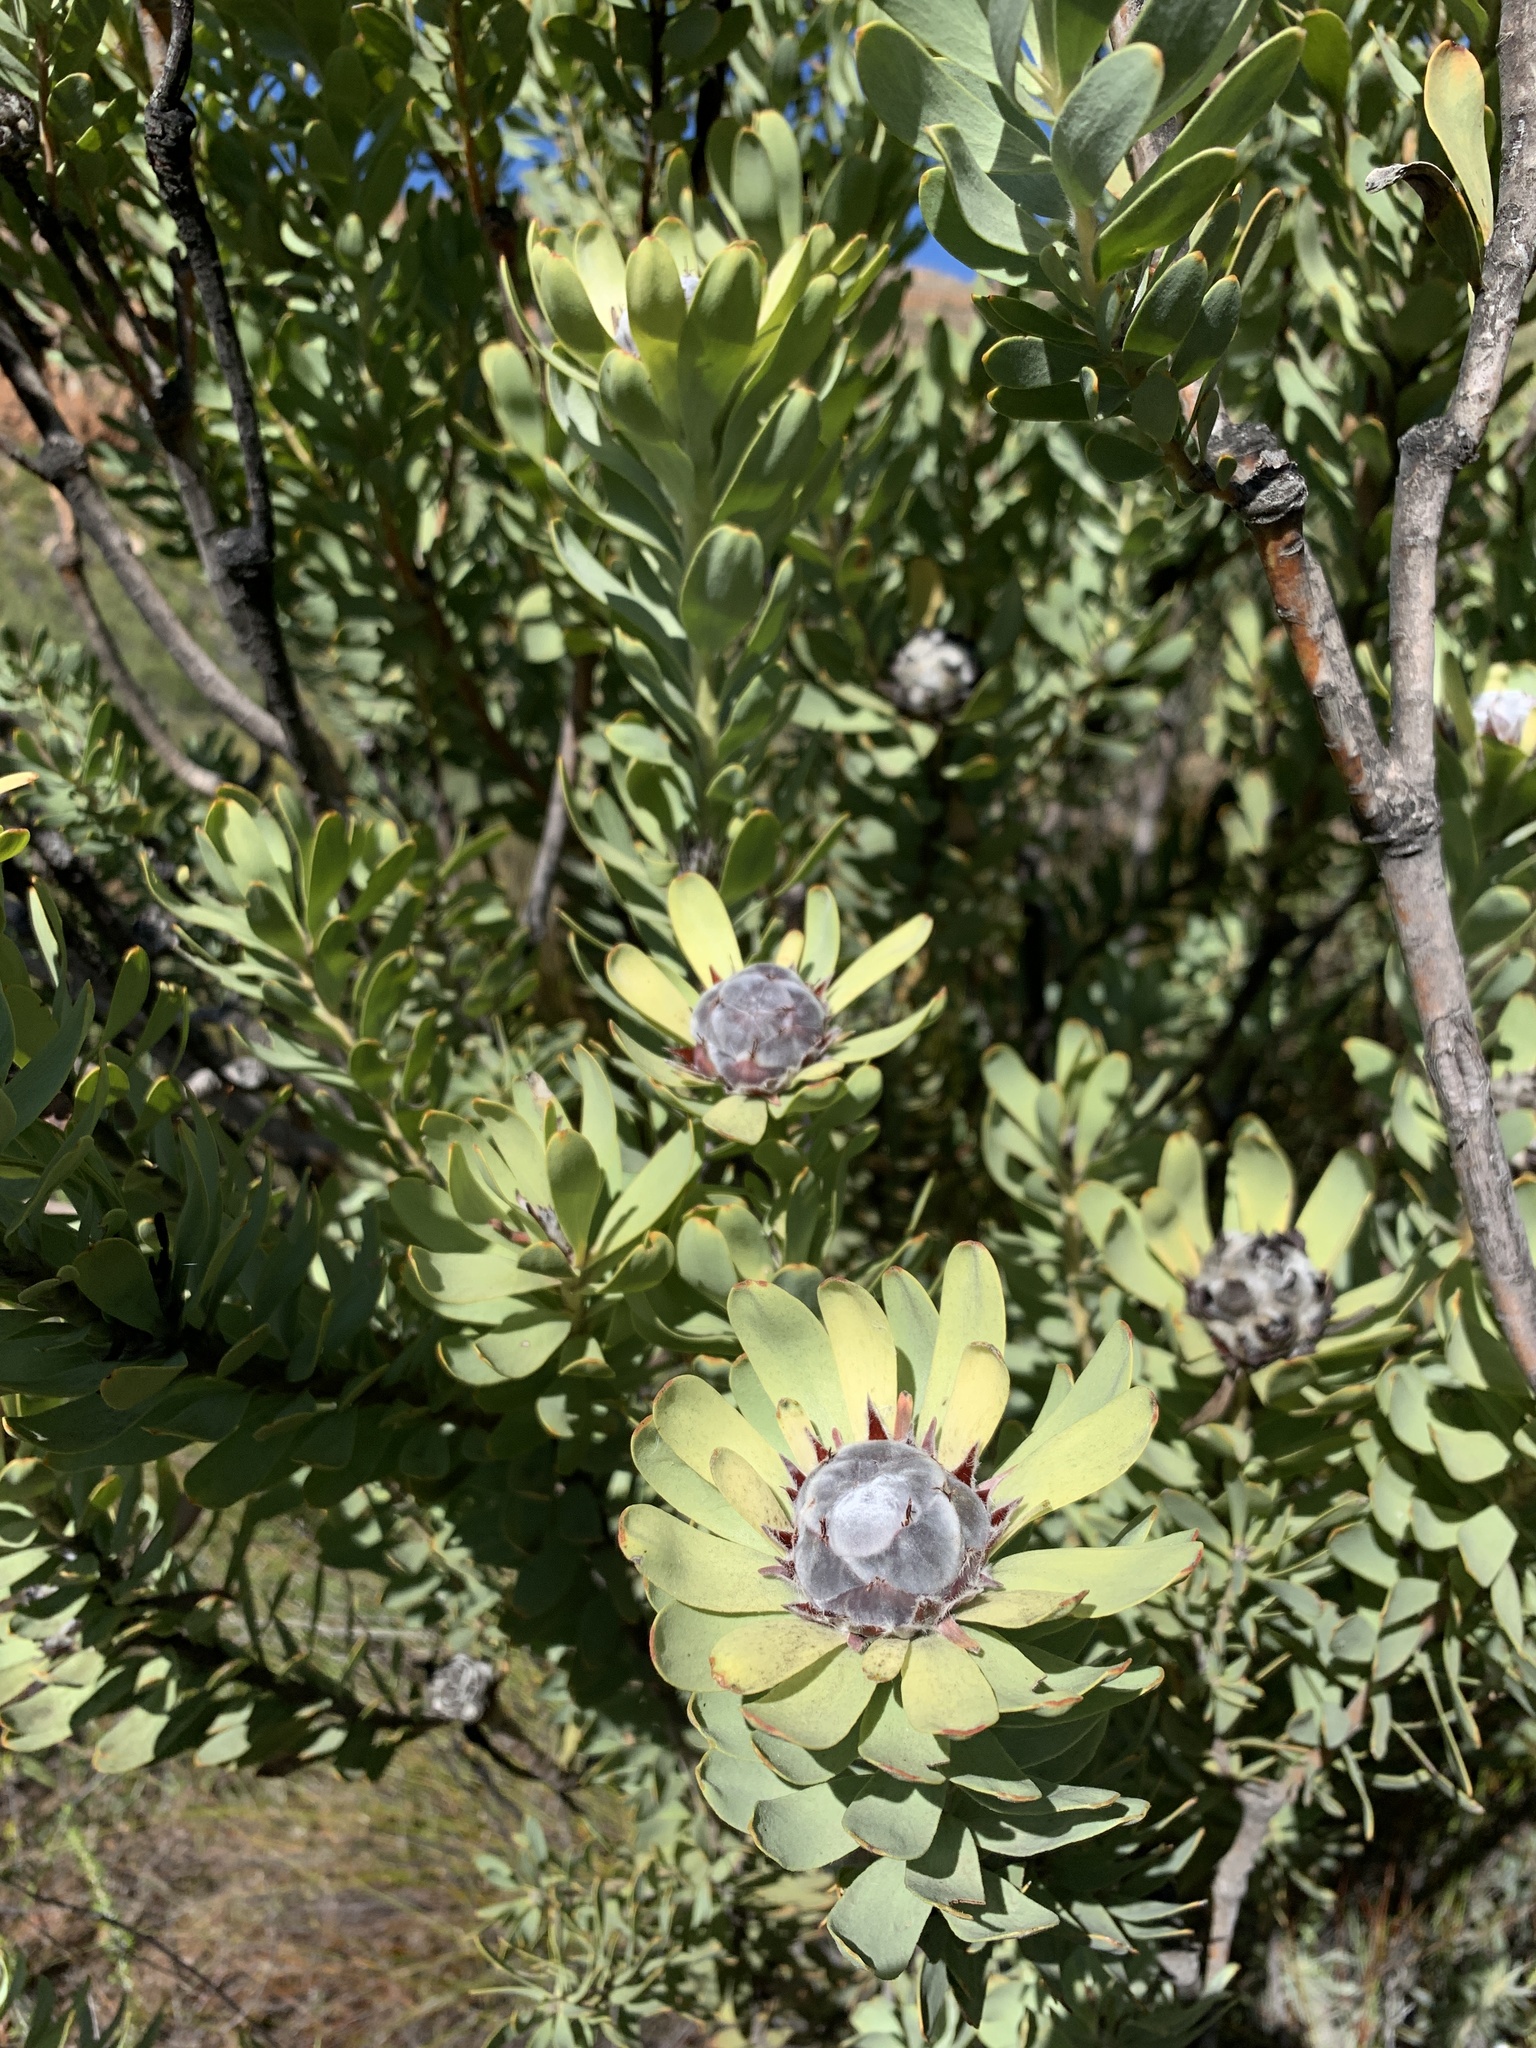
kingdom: Plantae
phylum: Tracheophyta
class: Magnoliopsida
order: Proteales
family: Proteaceae
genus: Leucadendron
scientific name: Leucadendron pubescens
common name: Grey conebush
